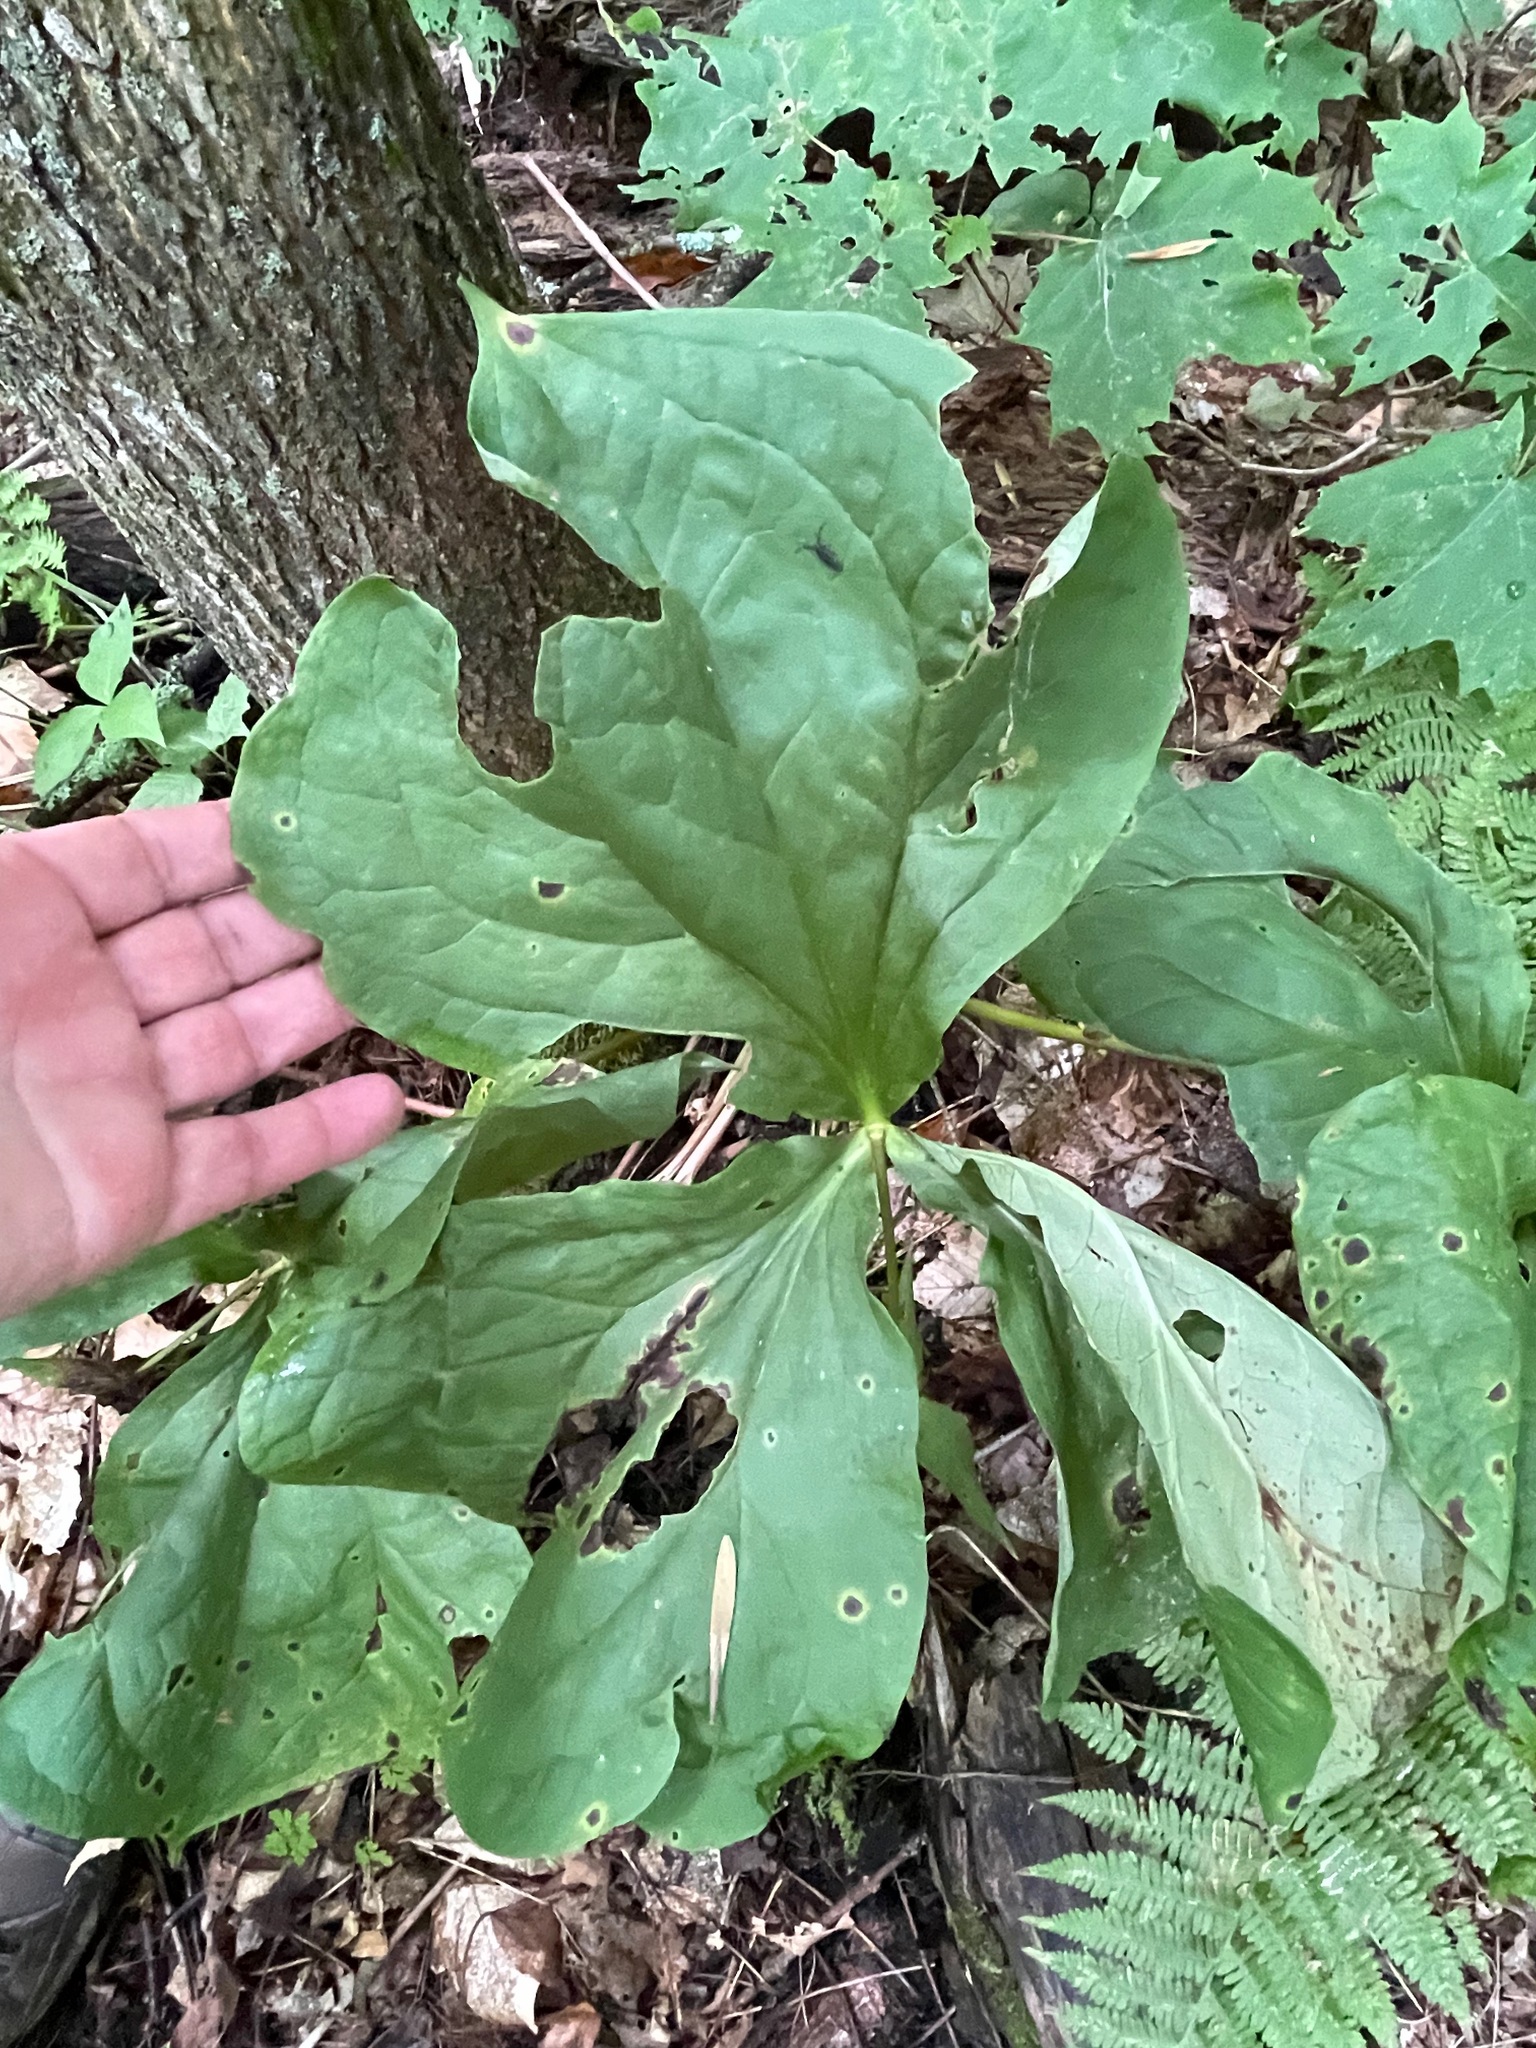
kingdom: Plantae
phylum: Tracheophyta
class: Liliopsida
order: Liliales
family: Melanthiaceae
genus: Trillium
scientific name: Trillium erectum
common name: Purple trillium
